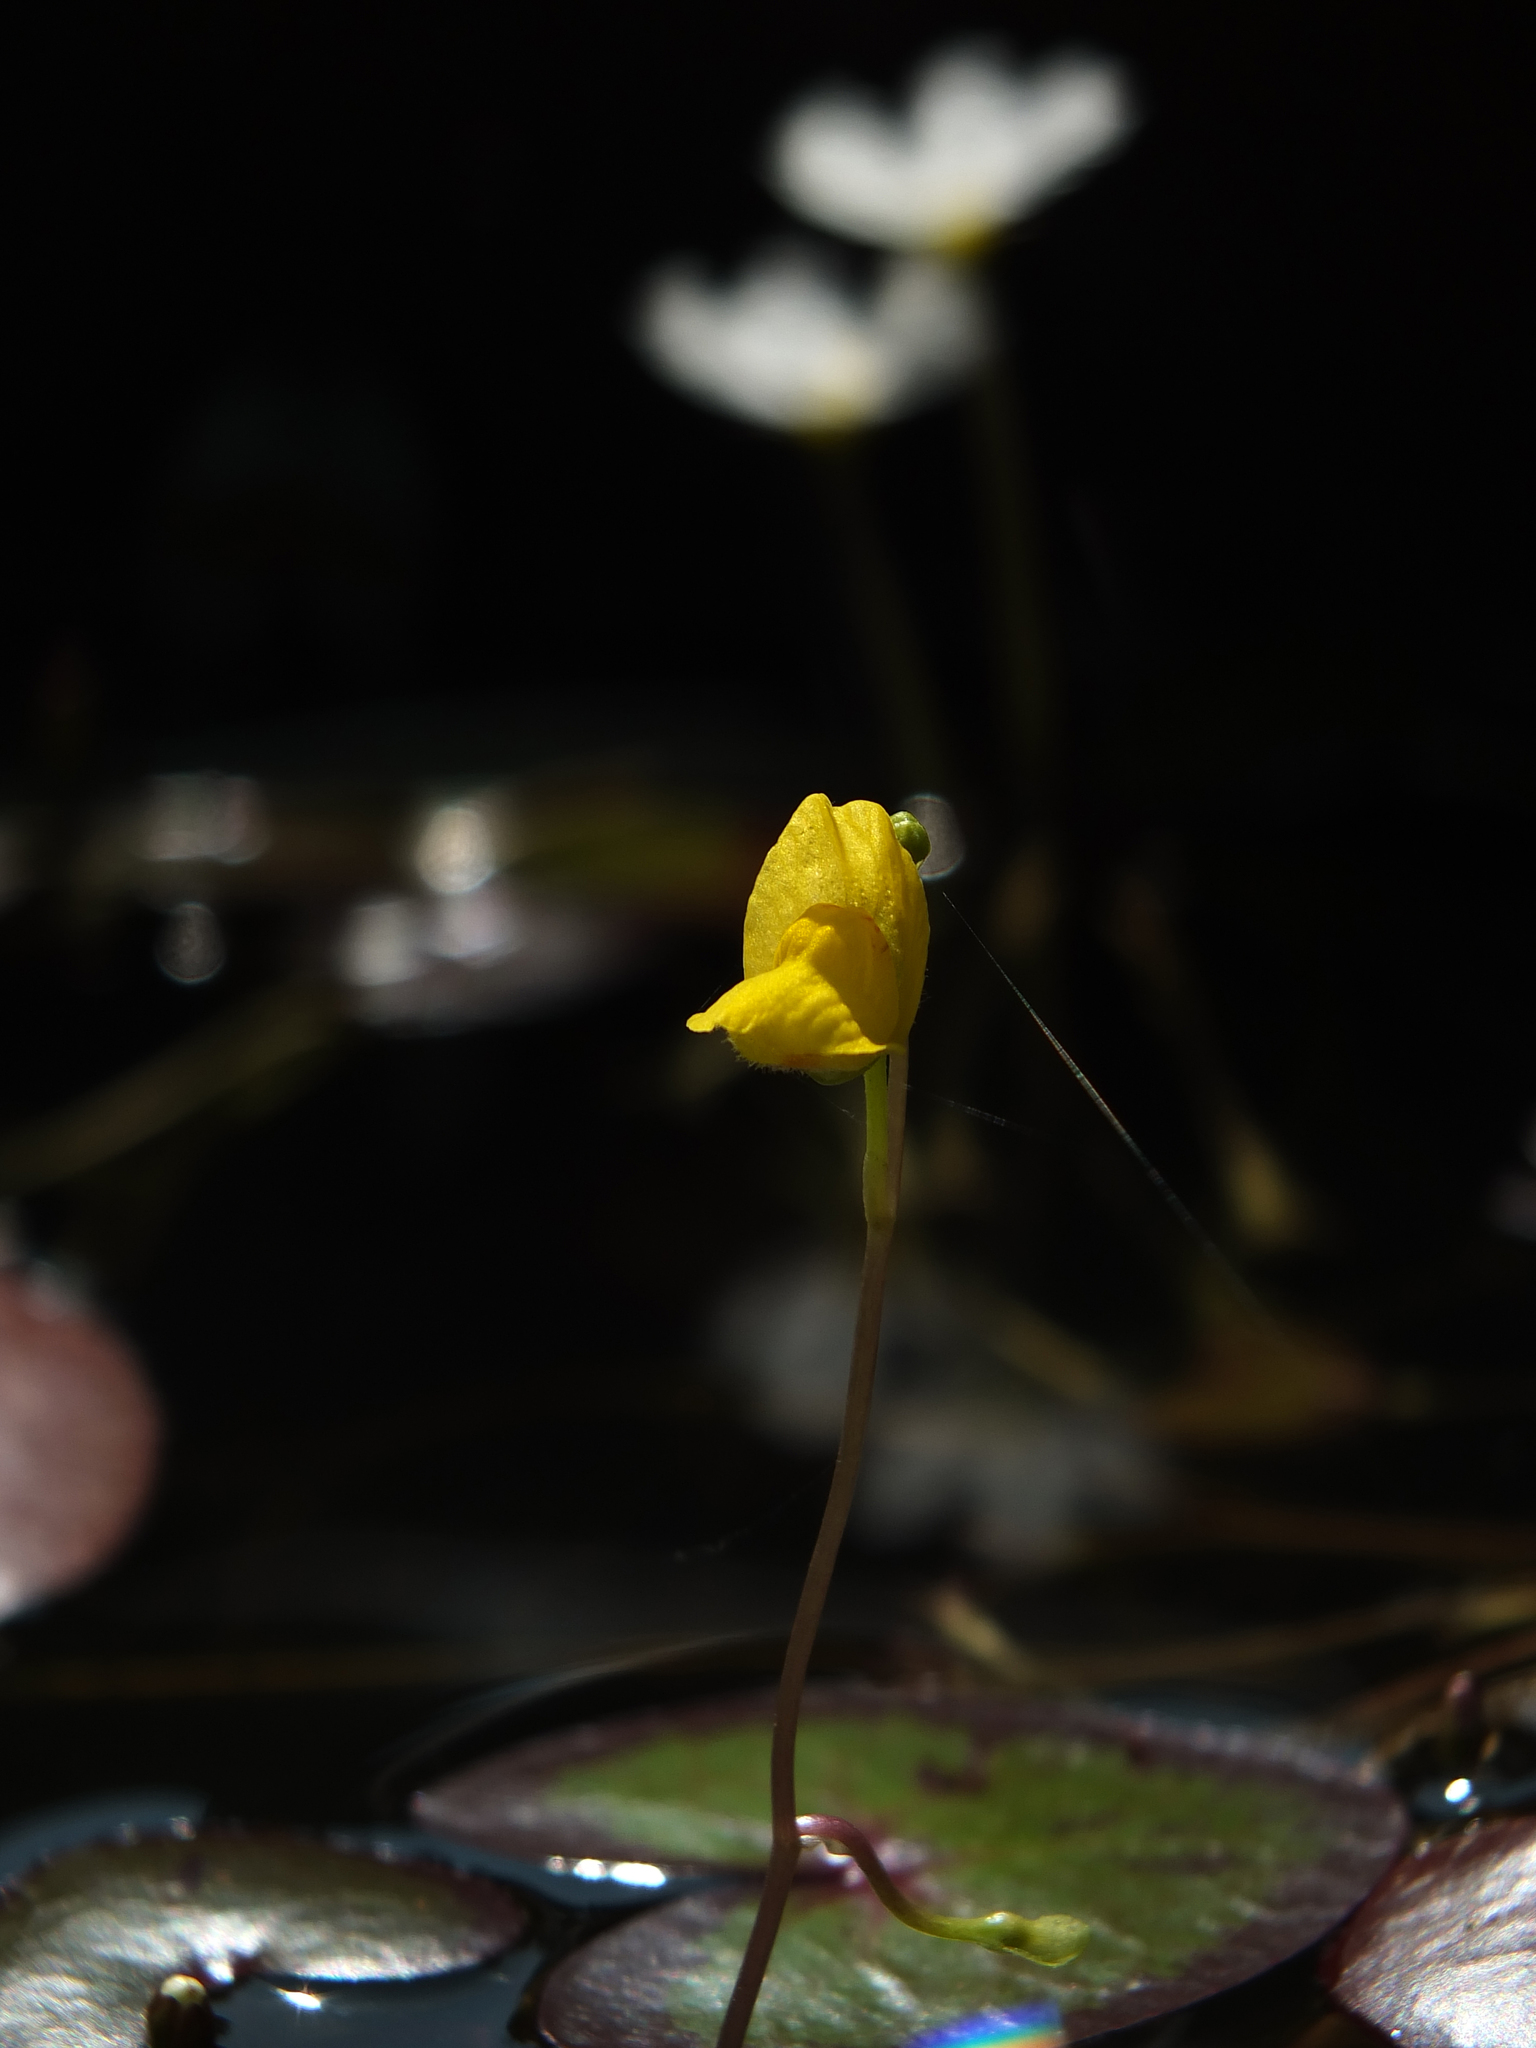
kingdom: Plantae
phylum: Tracheophyta
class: Magnoliopsida
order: Lamiales
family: Lentibulariaceae
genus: Utricularia
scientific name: Utricularia aurea
